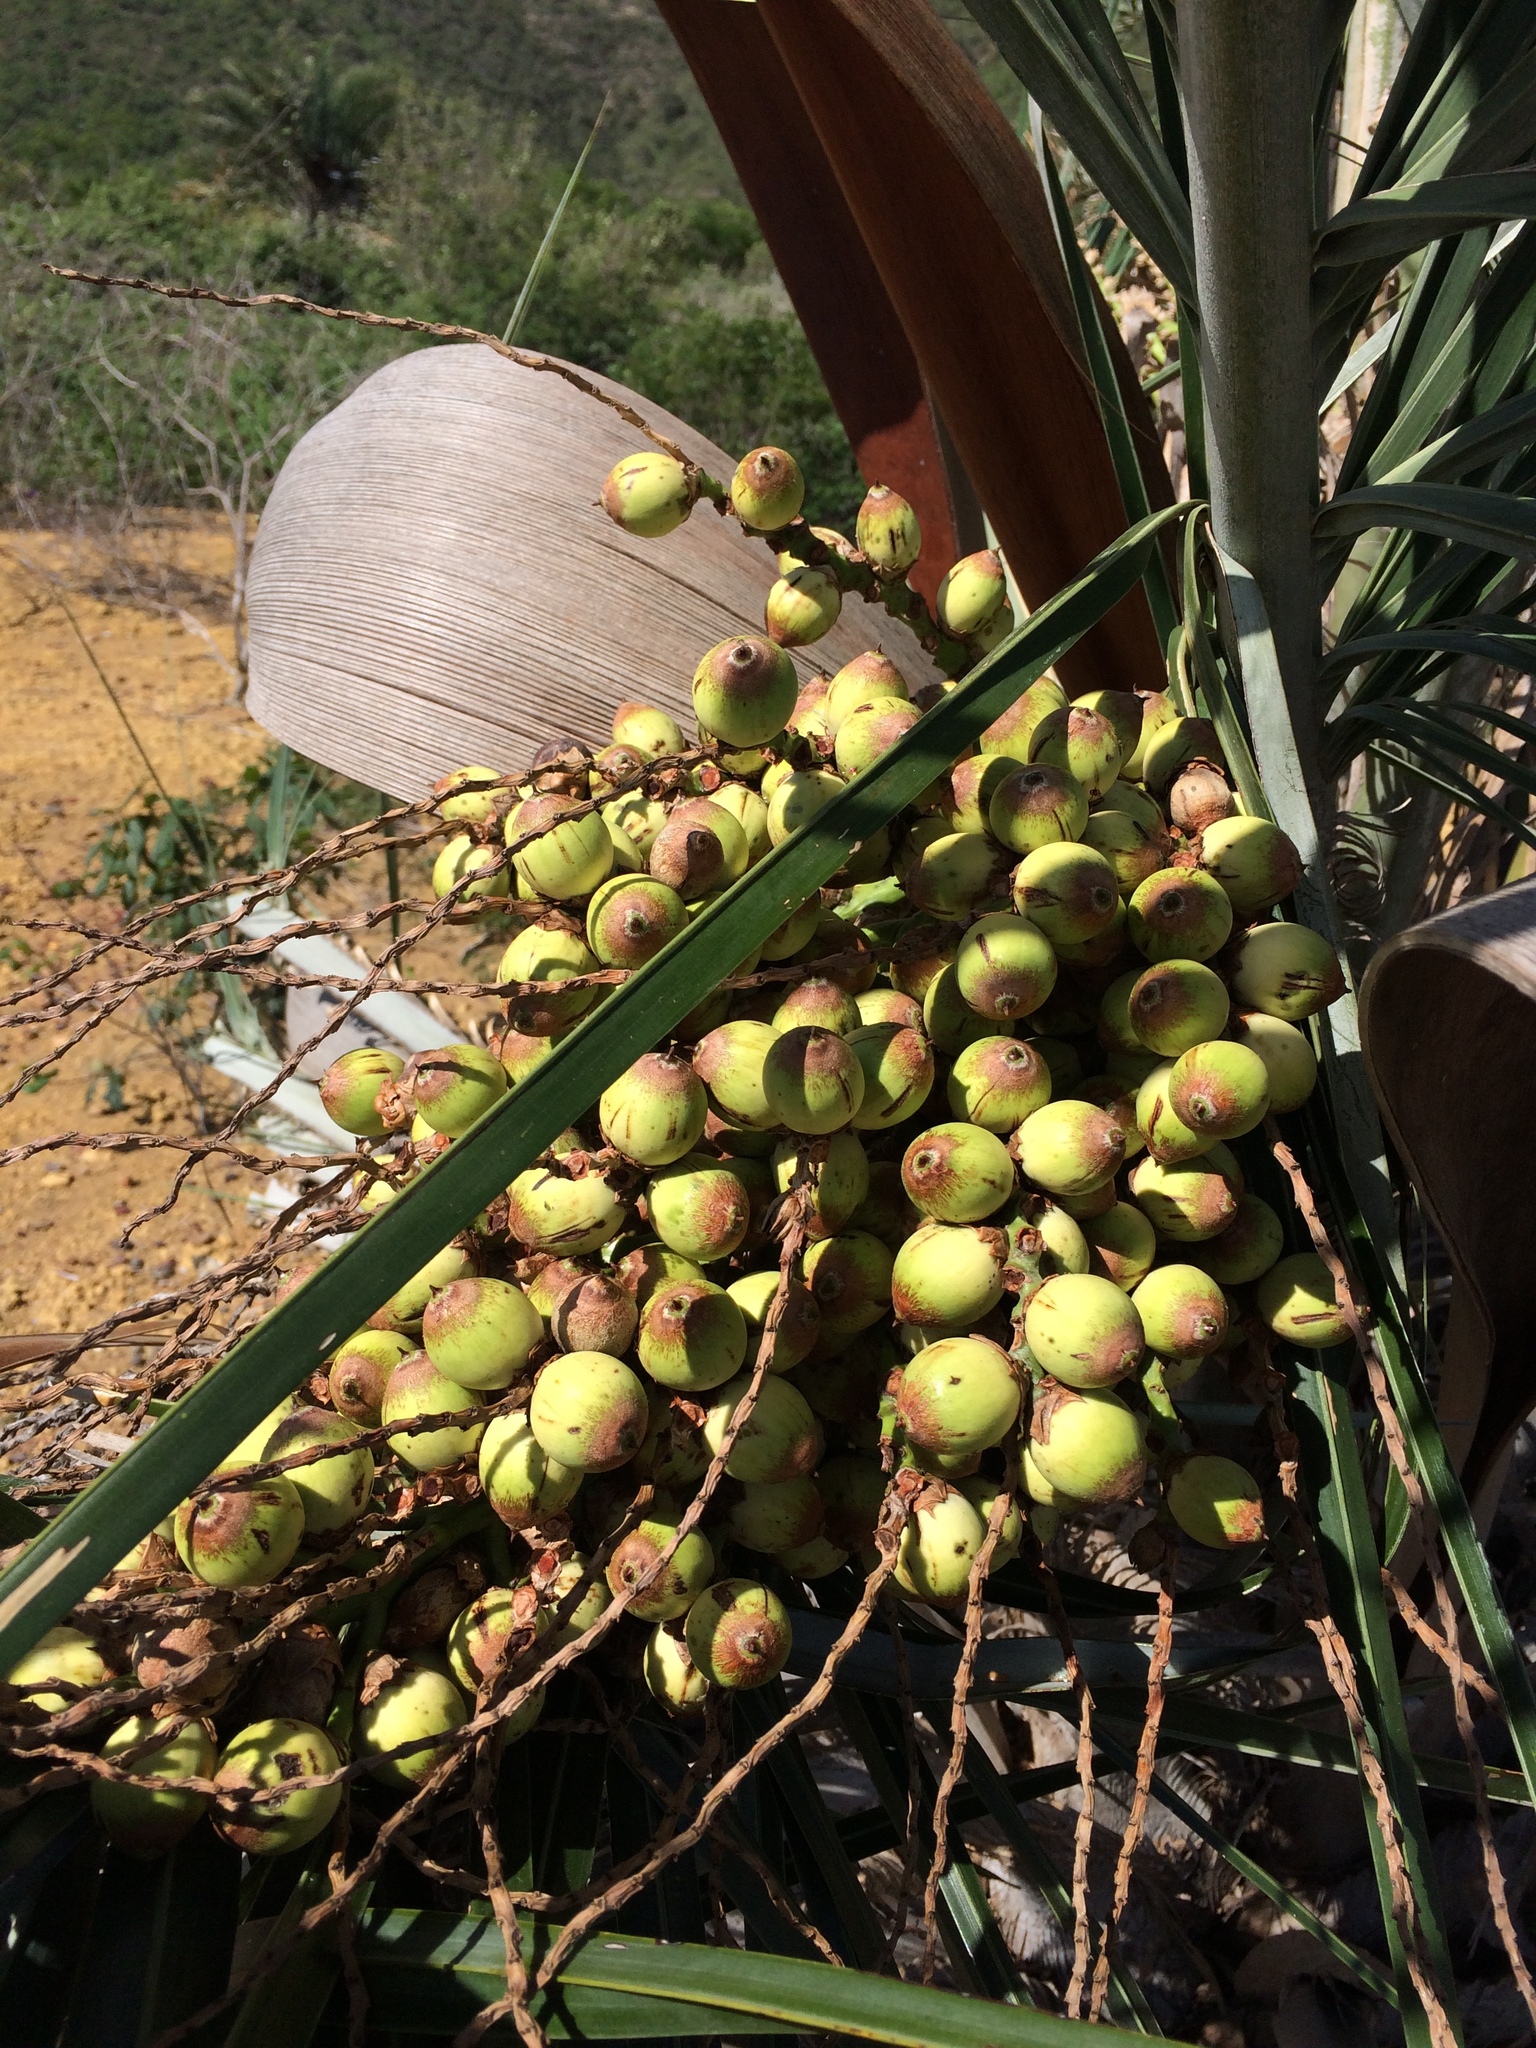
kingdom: Plantae
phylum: Tracheophyta
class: Liliopsida
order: Arecales
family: Arecaceae
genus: Syagrus
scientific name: Syagrus coronata
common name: Licuri palm
